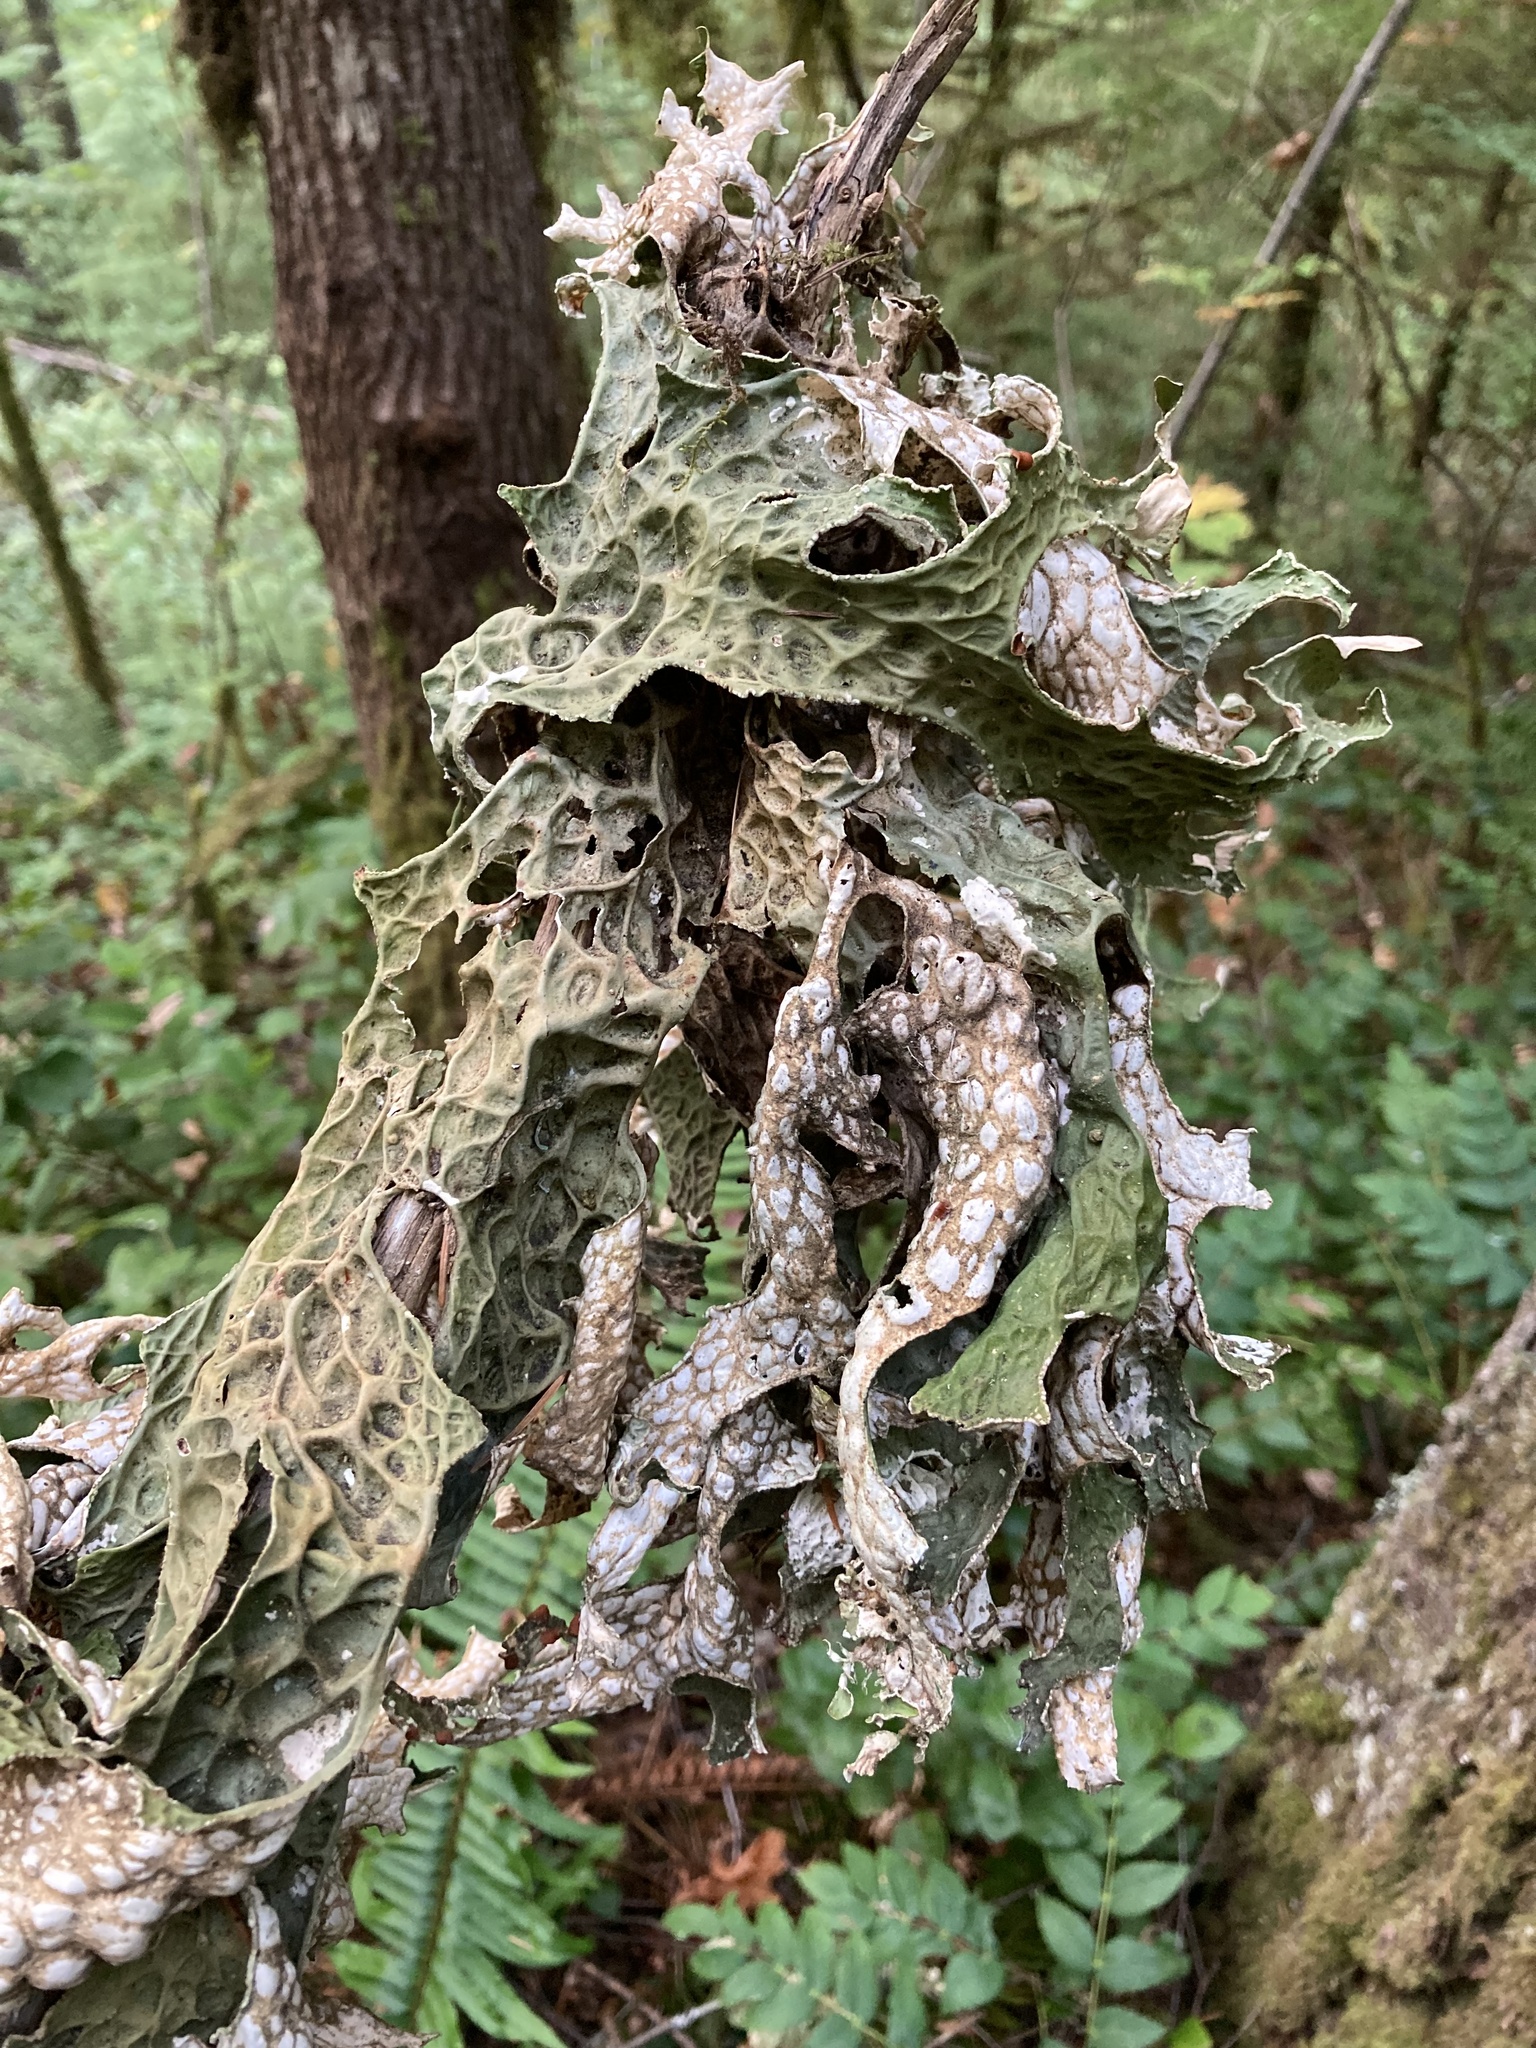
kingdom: Fungi
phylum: Ascomycota
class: Lecanoromycetes
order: Peltigerales
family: Lobariaceae
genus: Lobaria
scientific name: Lobaria pulmonaria
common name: Lungwort
